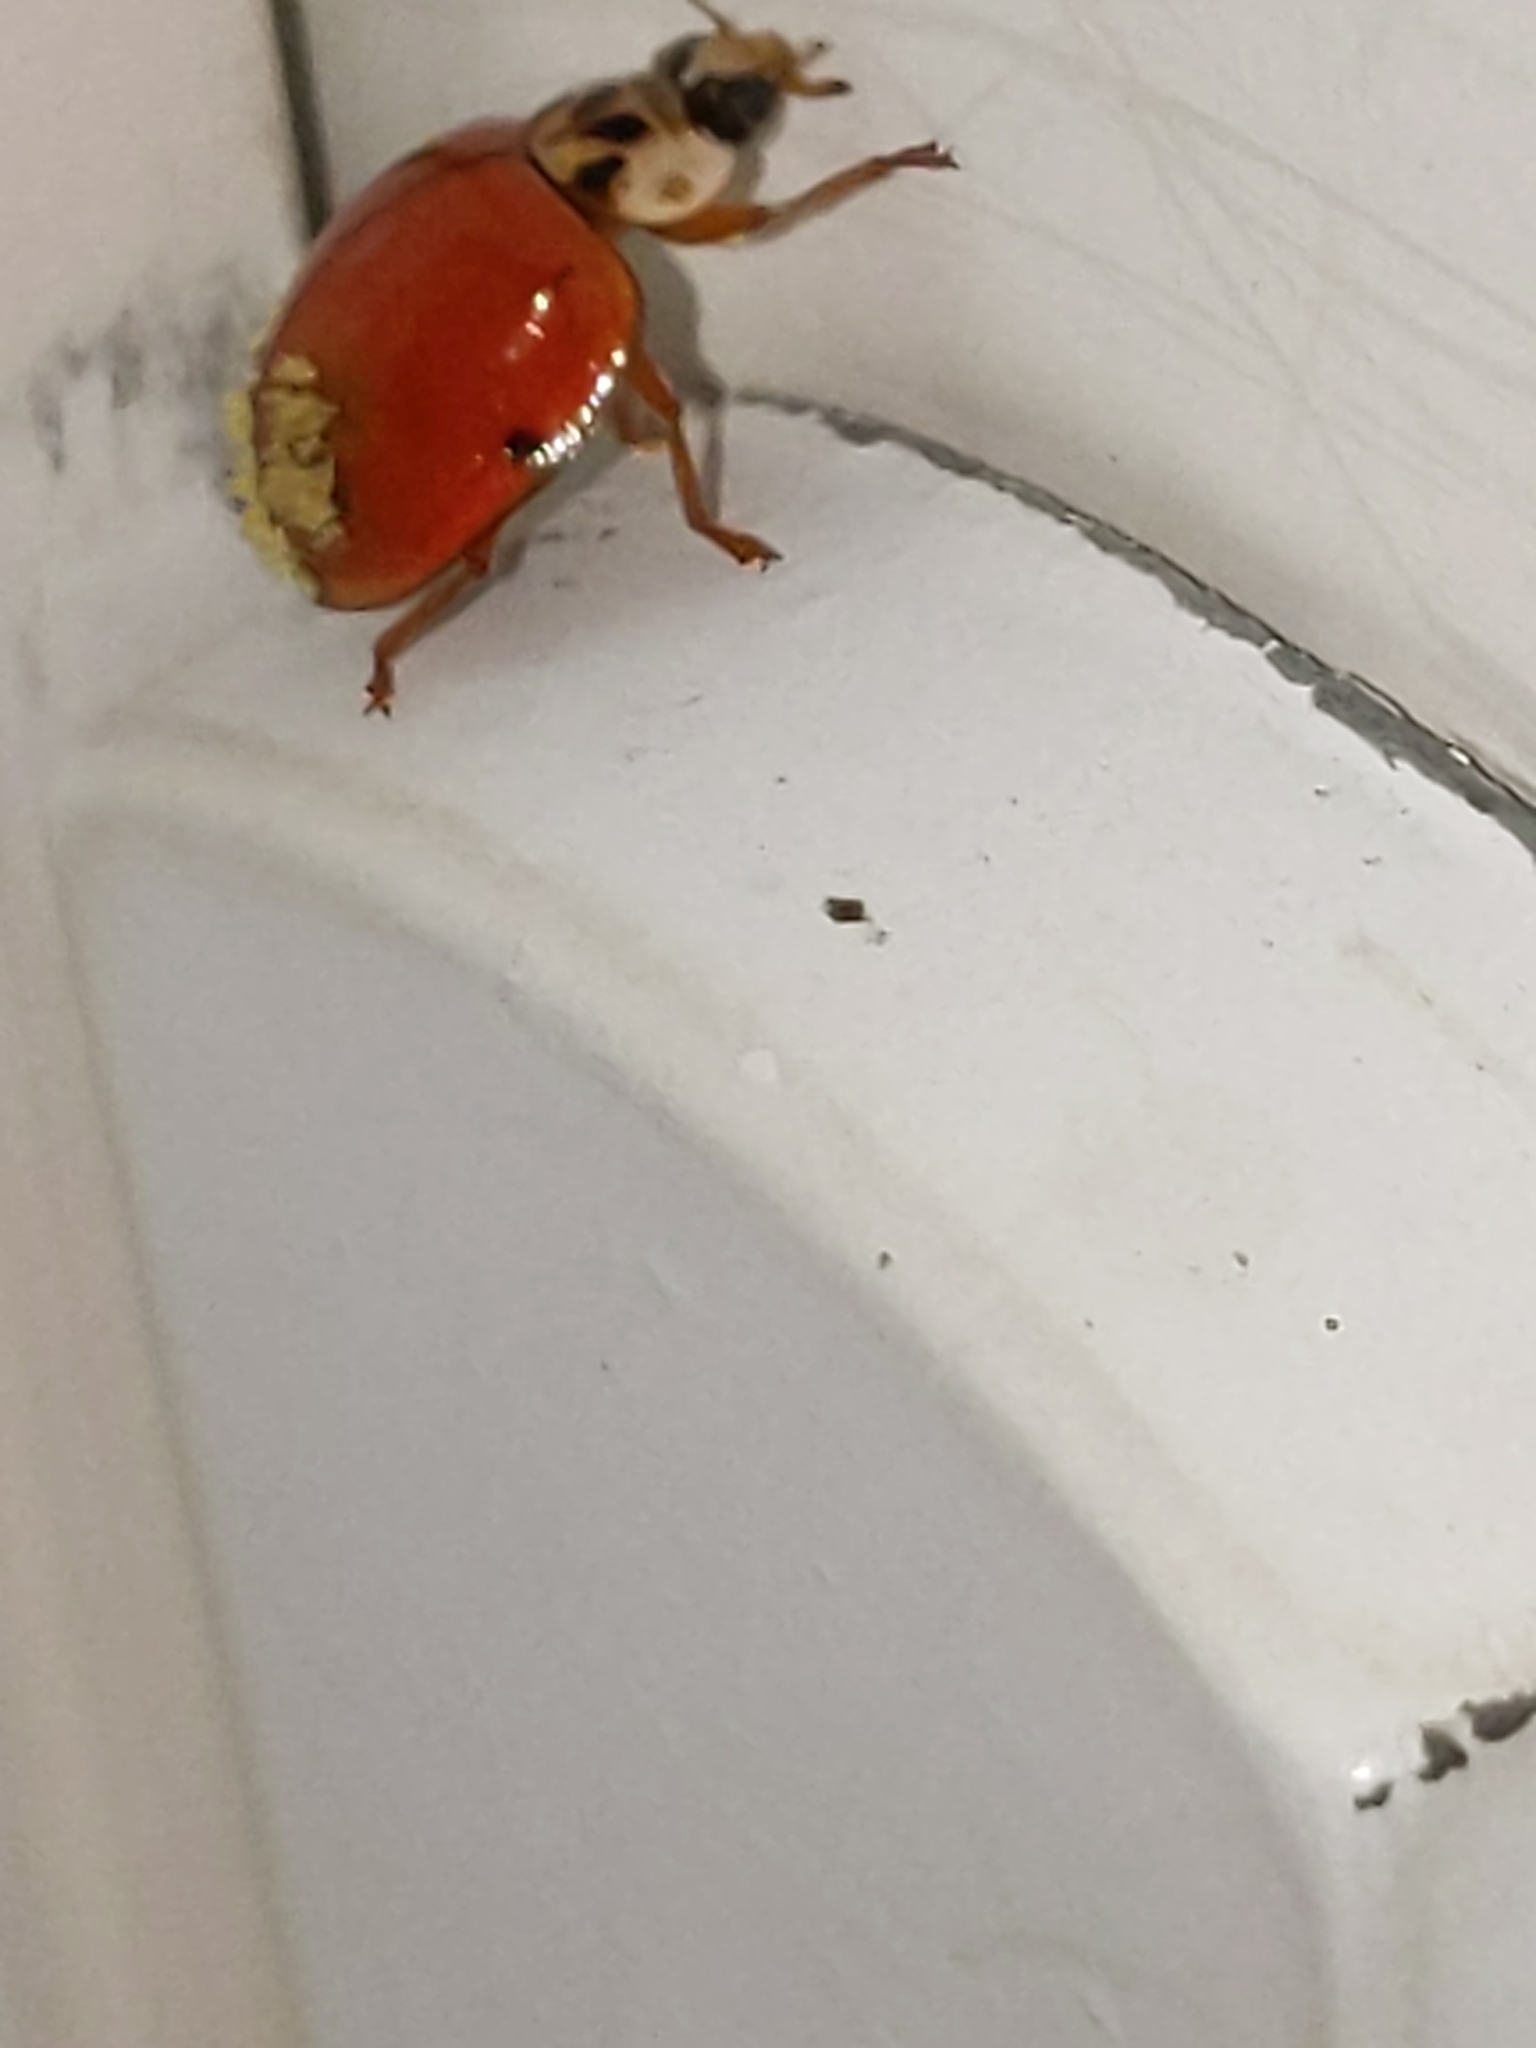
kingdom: Animalia
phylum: Arthropoda
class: Insecta
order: Coleoptera
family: Coccinellidae
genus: Harmonia
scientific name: Harmonia axyridis
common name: Harlequin ladybird
